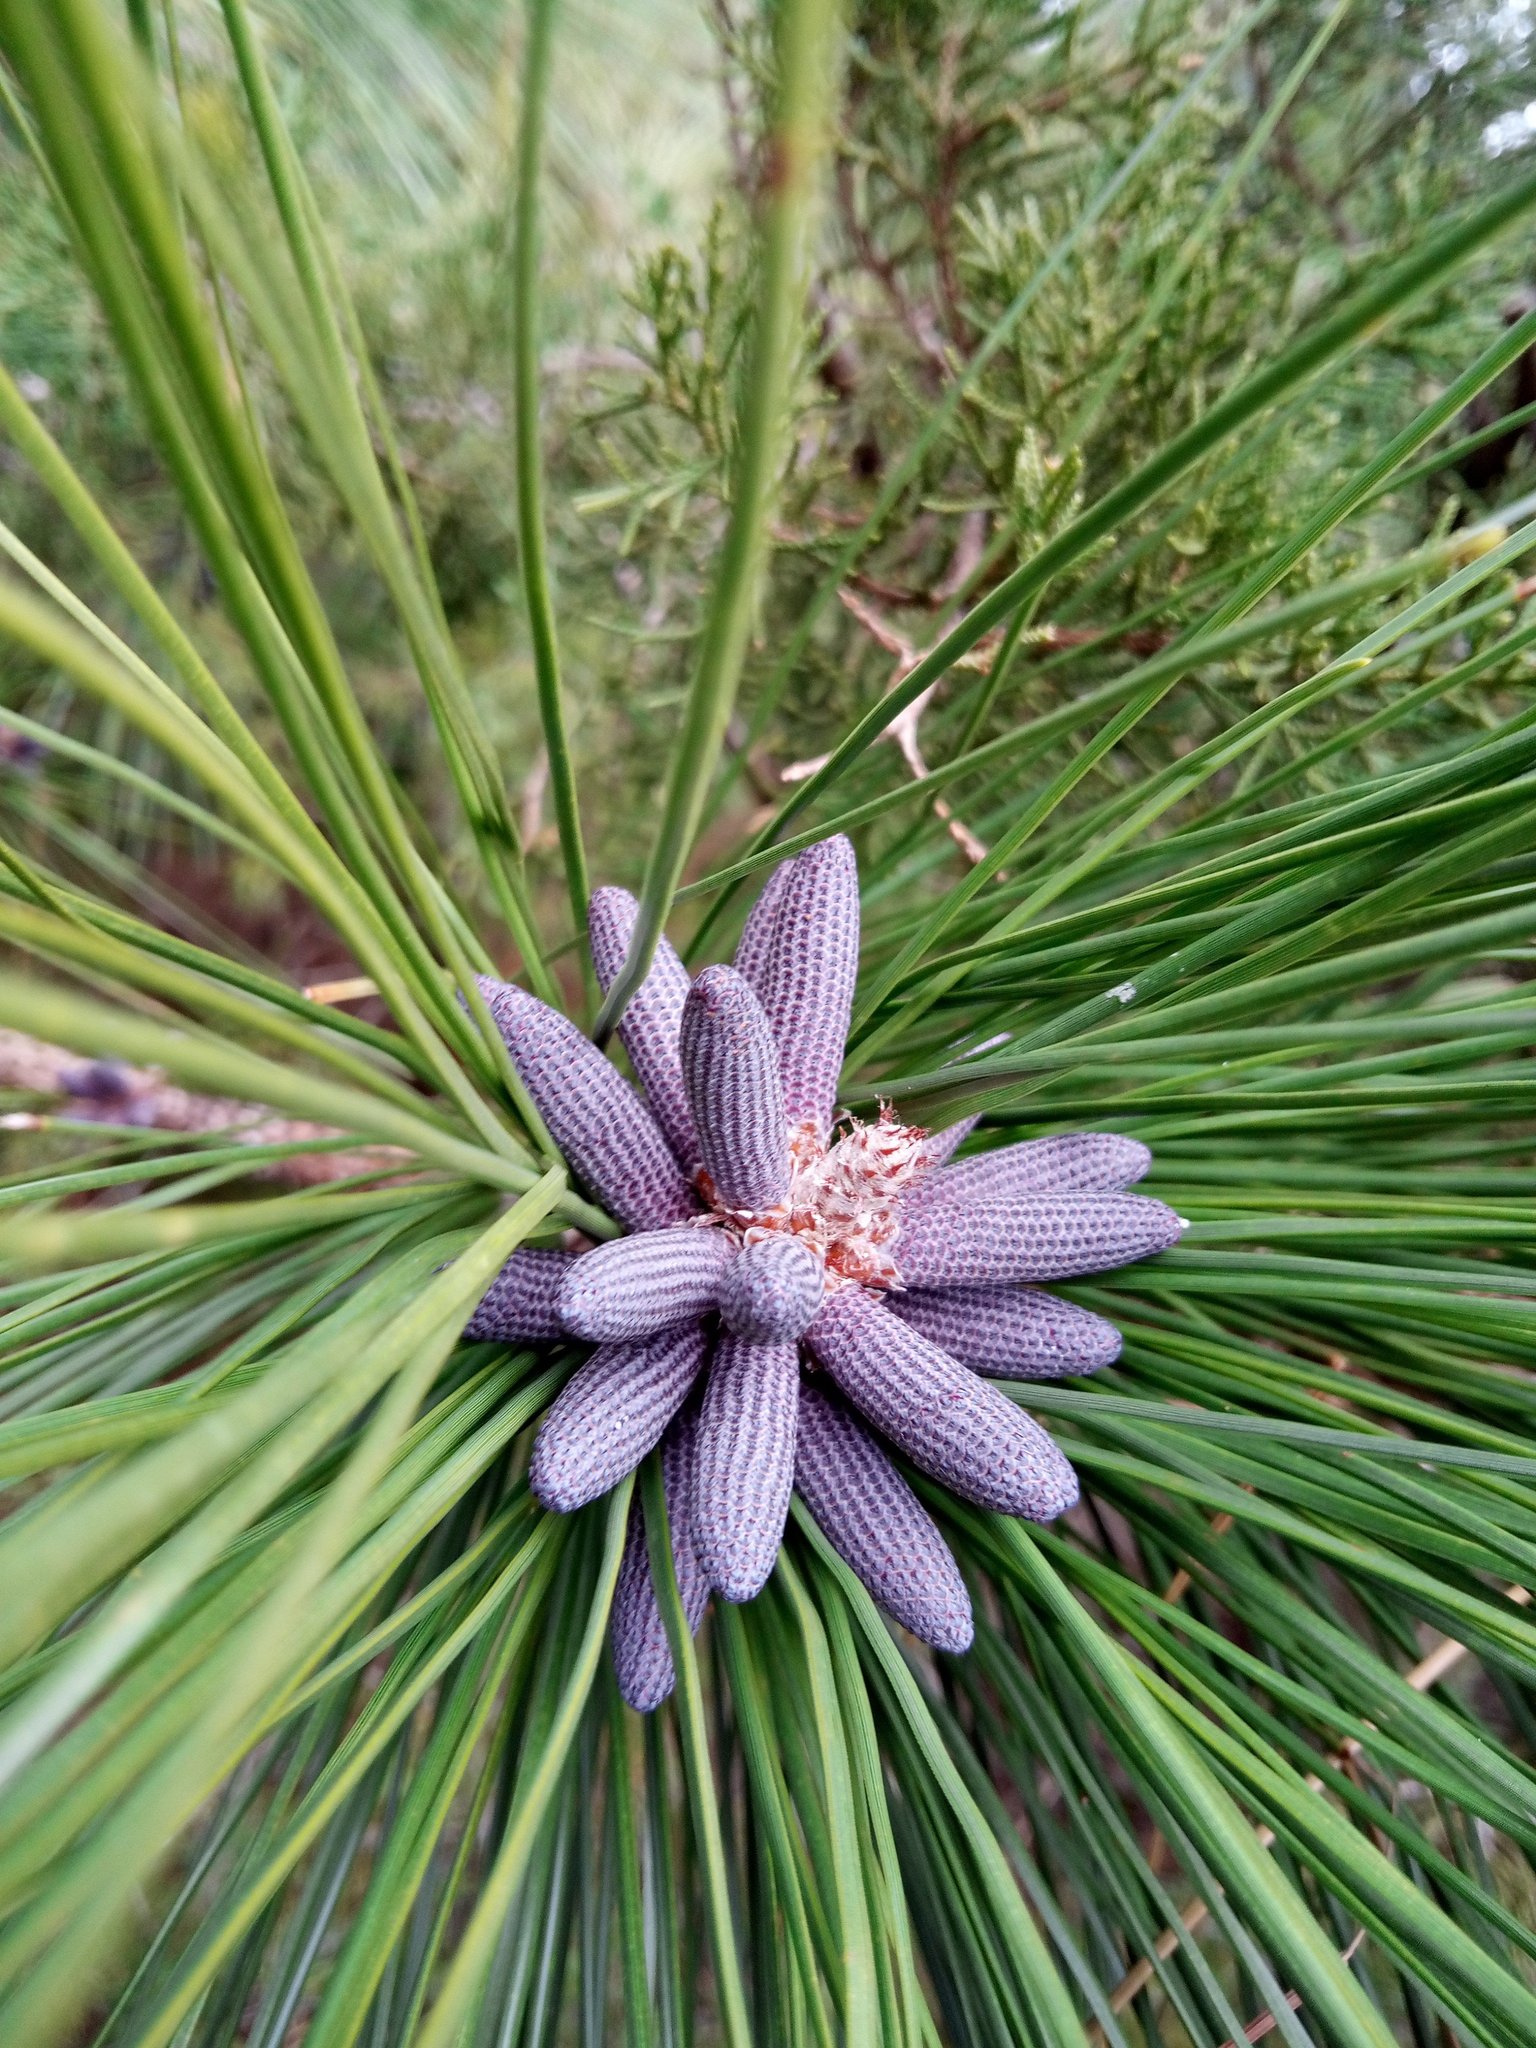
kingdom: Plantae
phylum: Tracheophyta
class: Pinopsida
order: Pinales
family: Pinaceae
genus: Pinus
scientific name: Pinus palustris
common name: Longleaf pine
